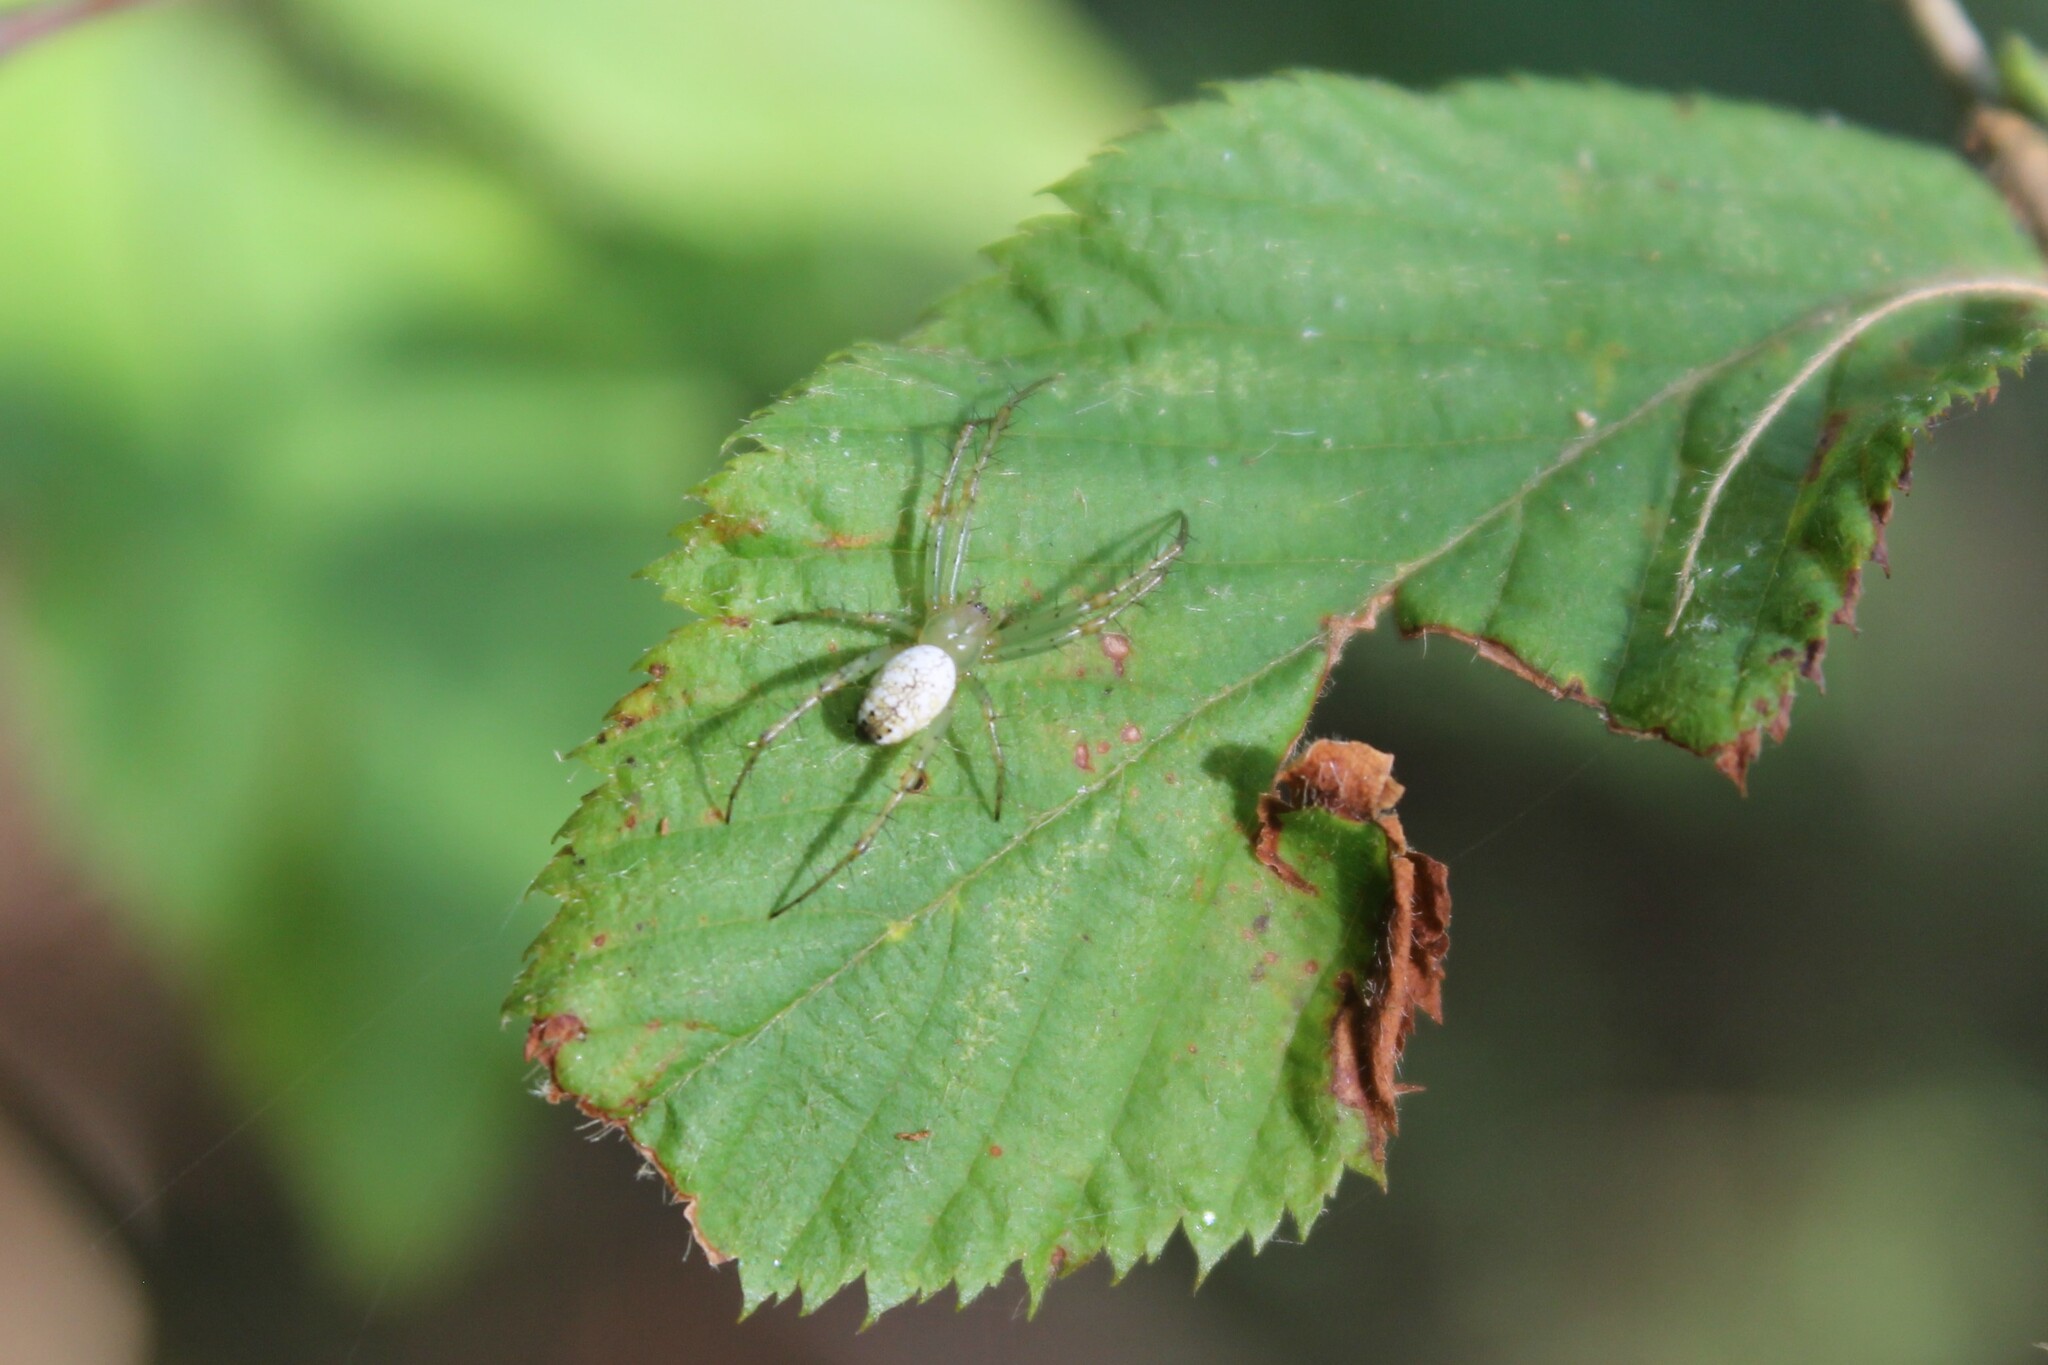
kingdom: Animalia
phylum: Arthropoda
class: Arachnida
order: Araneae
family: Araneidae
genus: Mangora
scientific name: Mangora maculata
